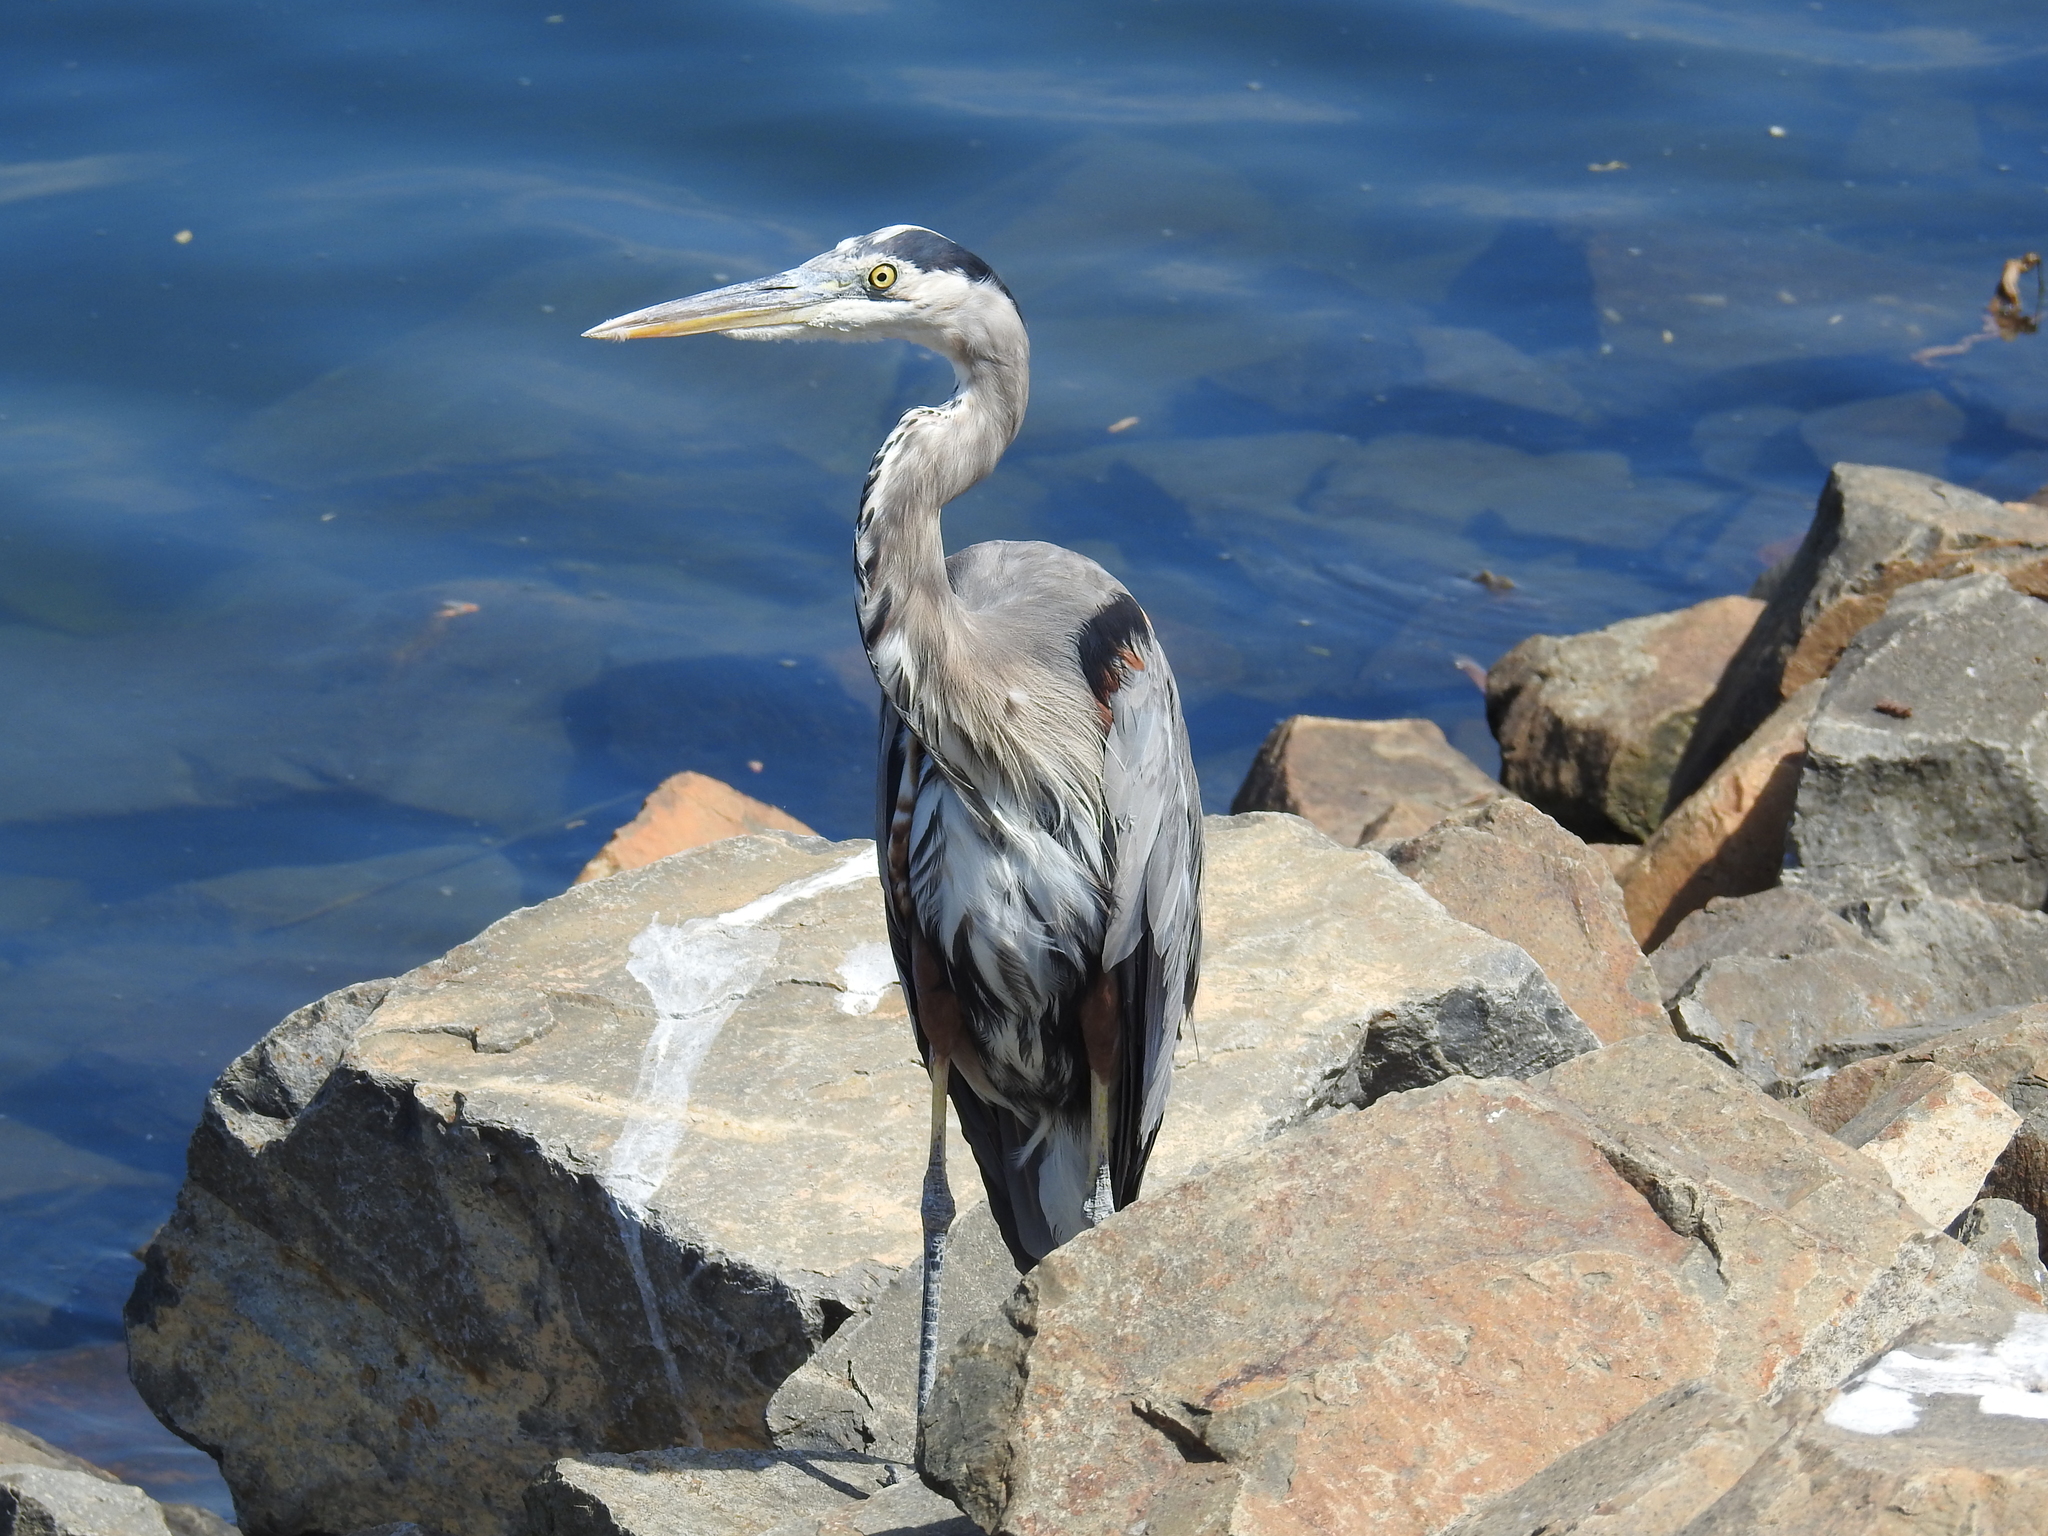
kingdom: Animalia
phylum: Chordata
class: Aves
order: Pelecaniformes
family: Ardeidae
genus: Ardea
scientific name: Ardea herodias
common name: Great blue heron
